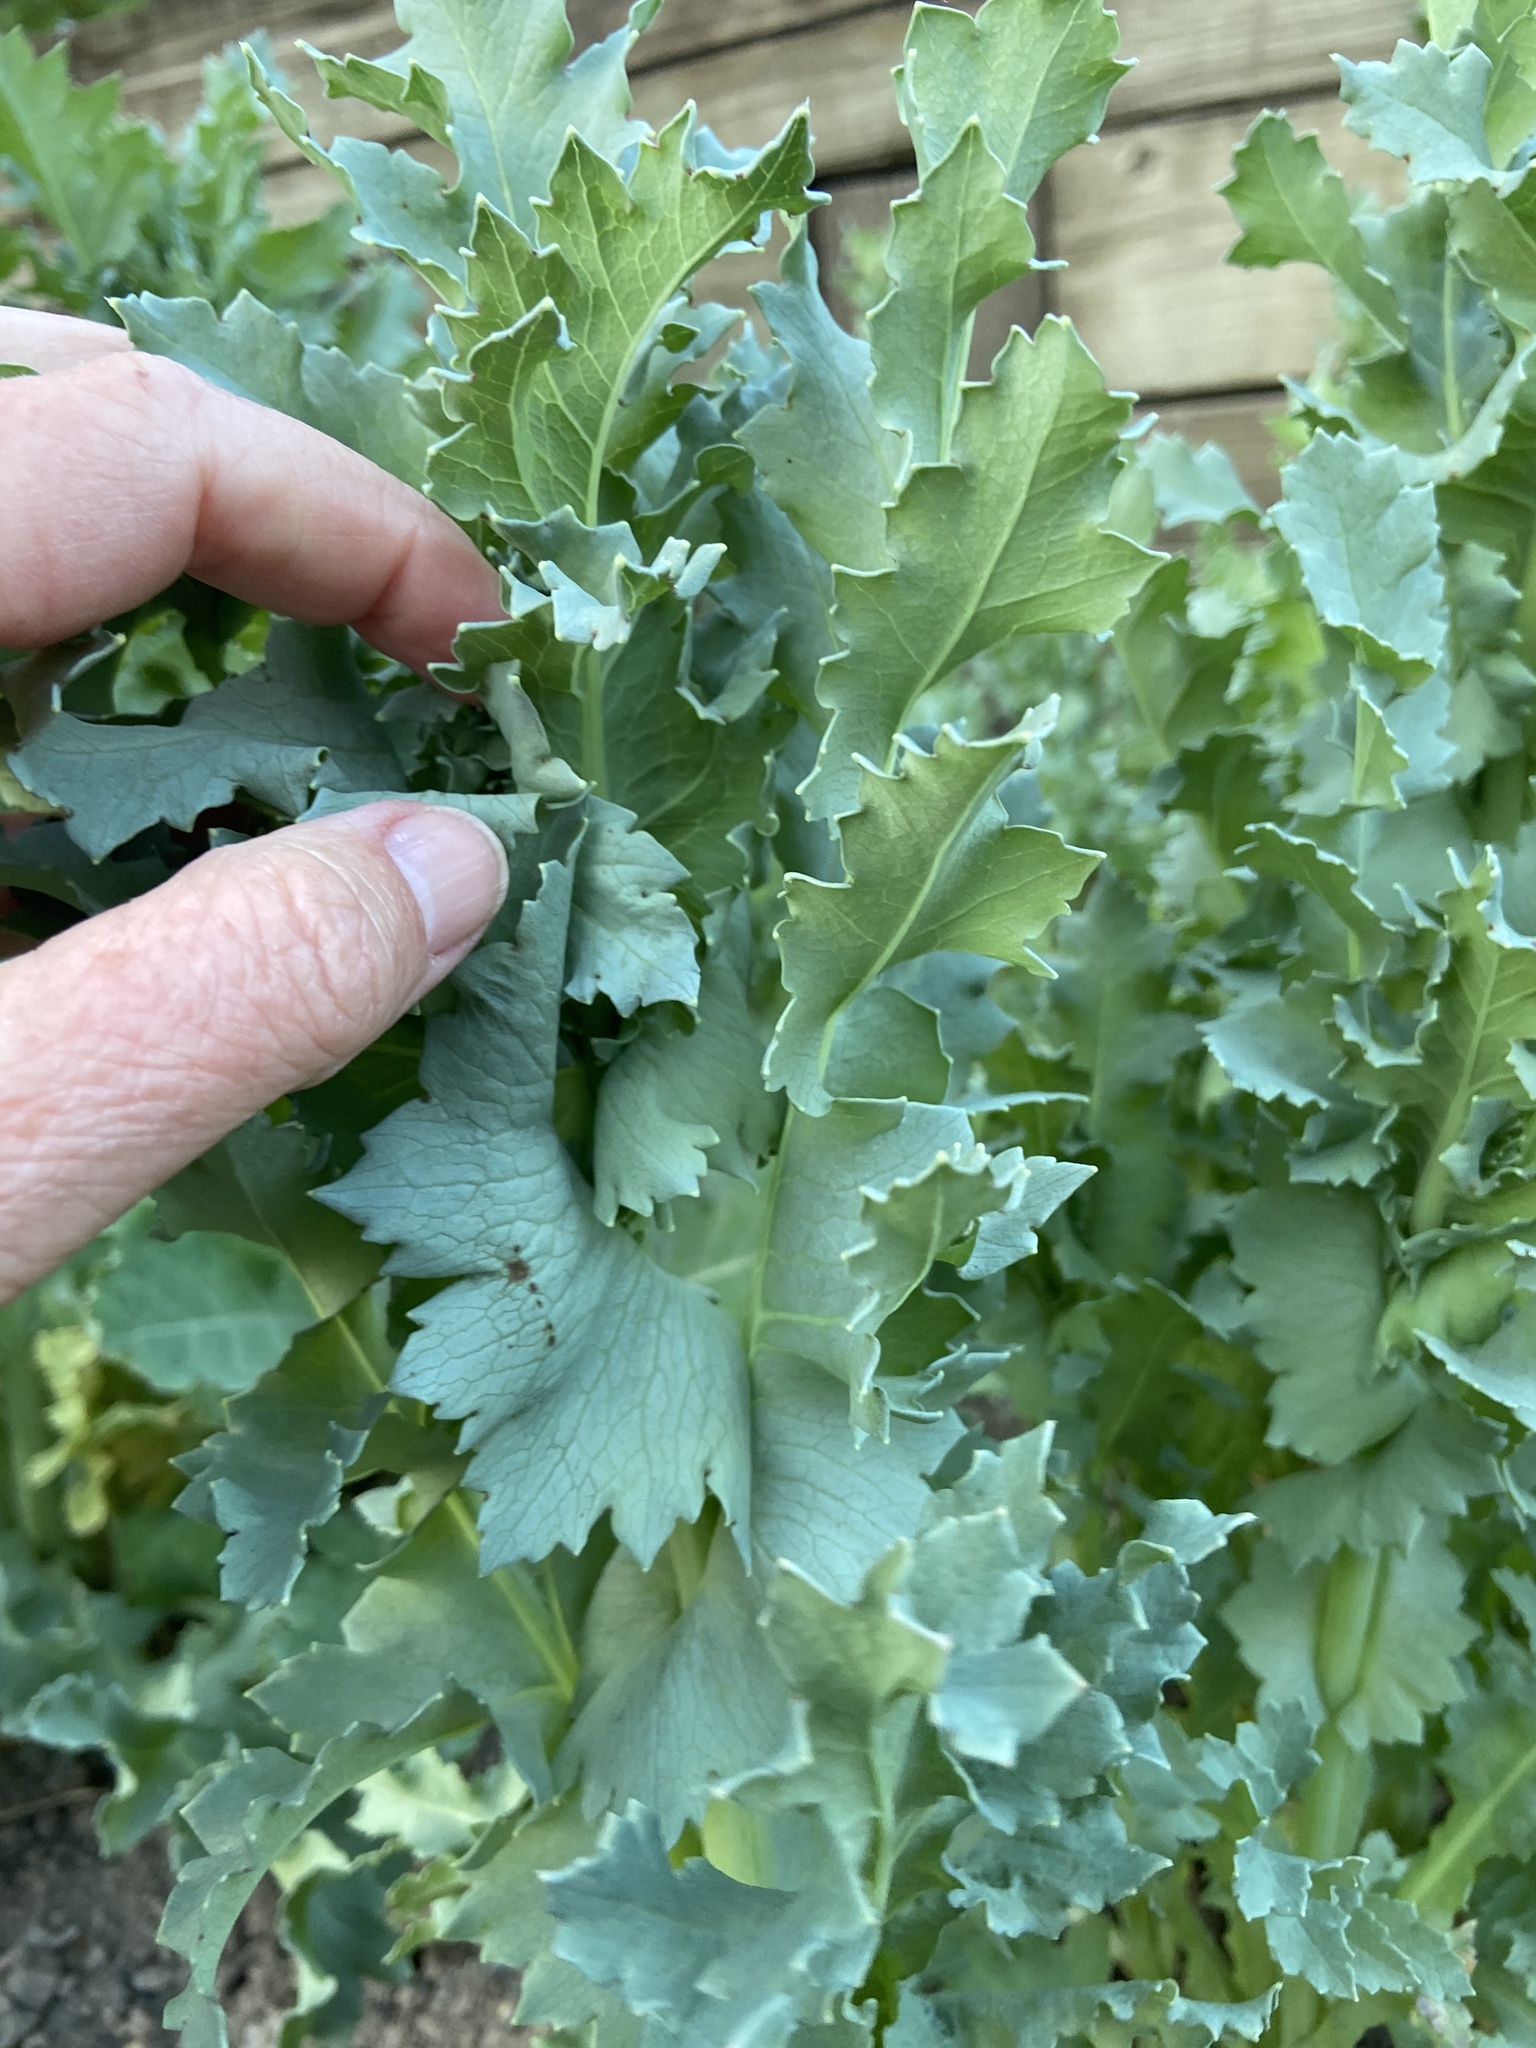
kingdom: Plantae
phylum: Tracheophyta
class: Magnoliopsida
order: Ranunculales
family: Papaveraceae
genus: Papaver
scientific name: Papaver somniferum
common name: Opium poppy
